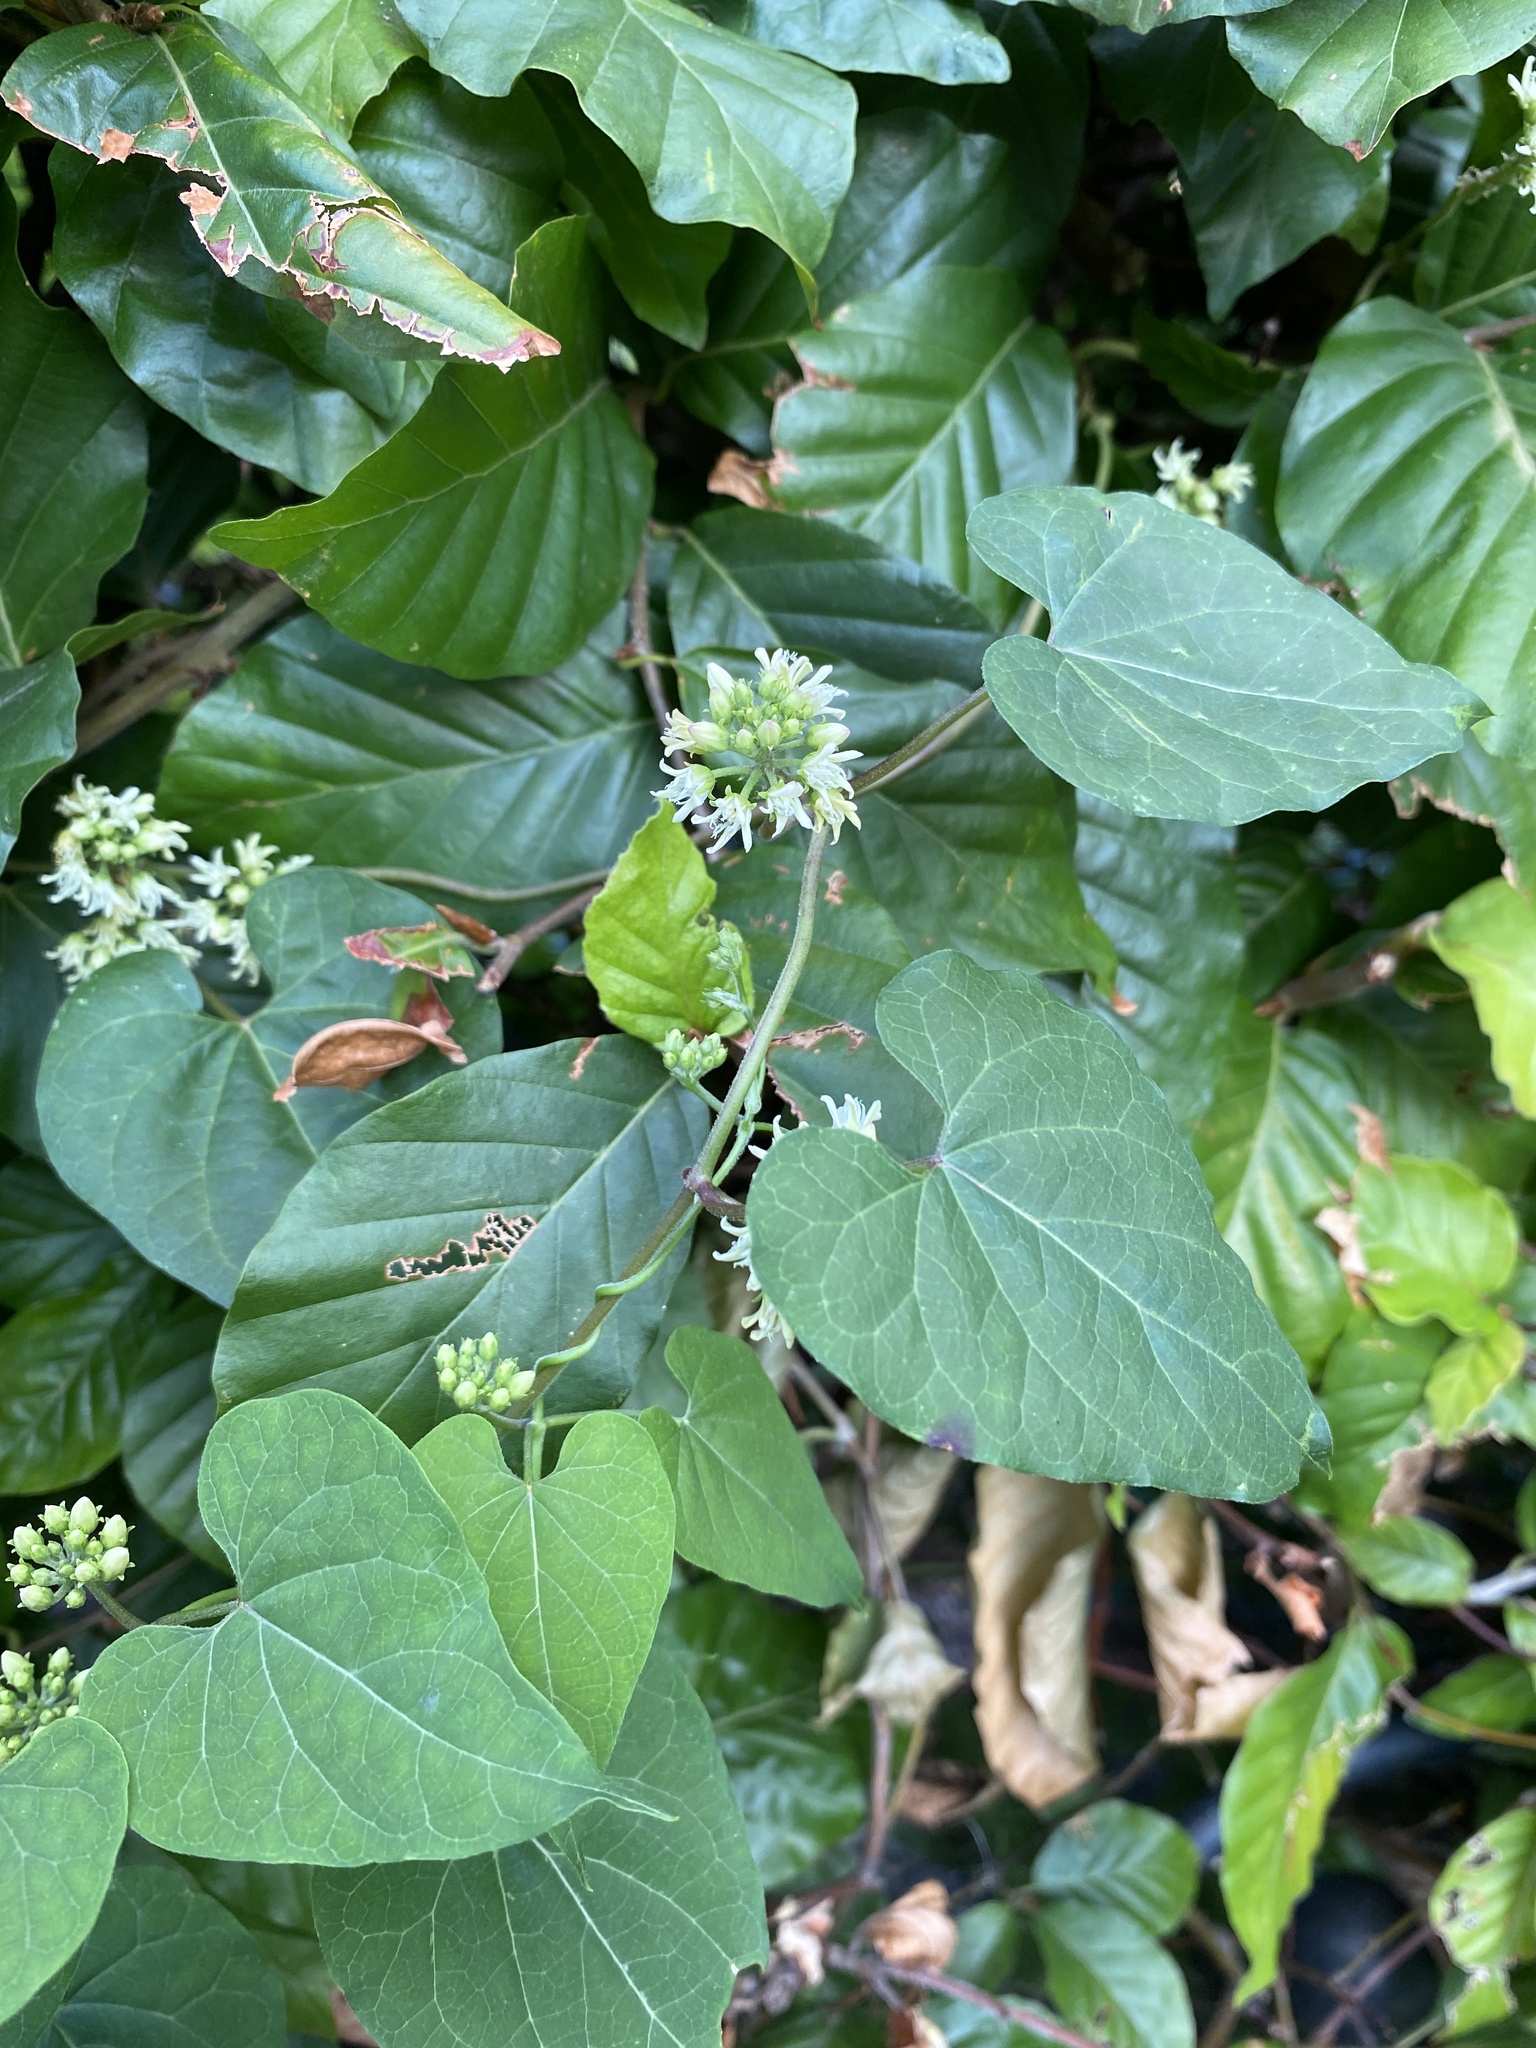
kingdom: Plantae
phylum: Tracheophyta
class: Magnoliopsida
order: Gentianales
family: Apocynaceae
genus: Cynanchum
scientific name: Cynanchum laeve
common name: Sandvine
